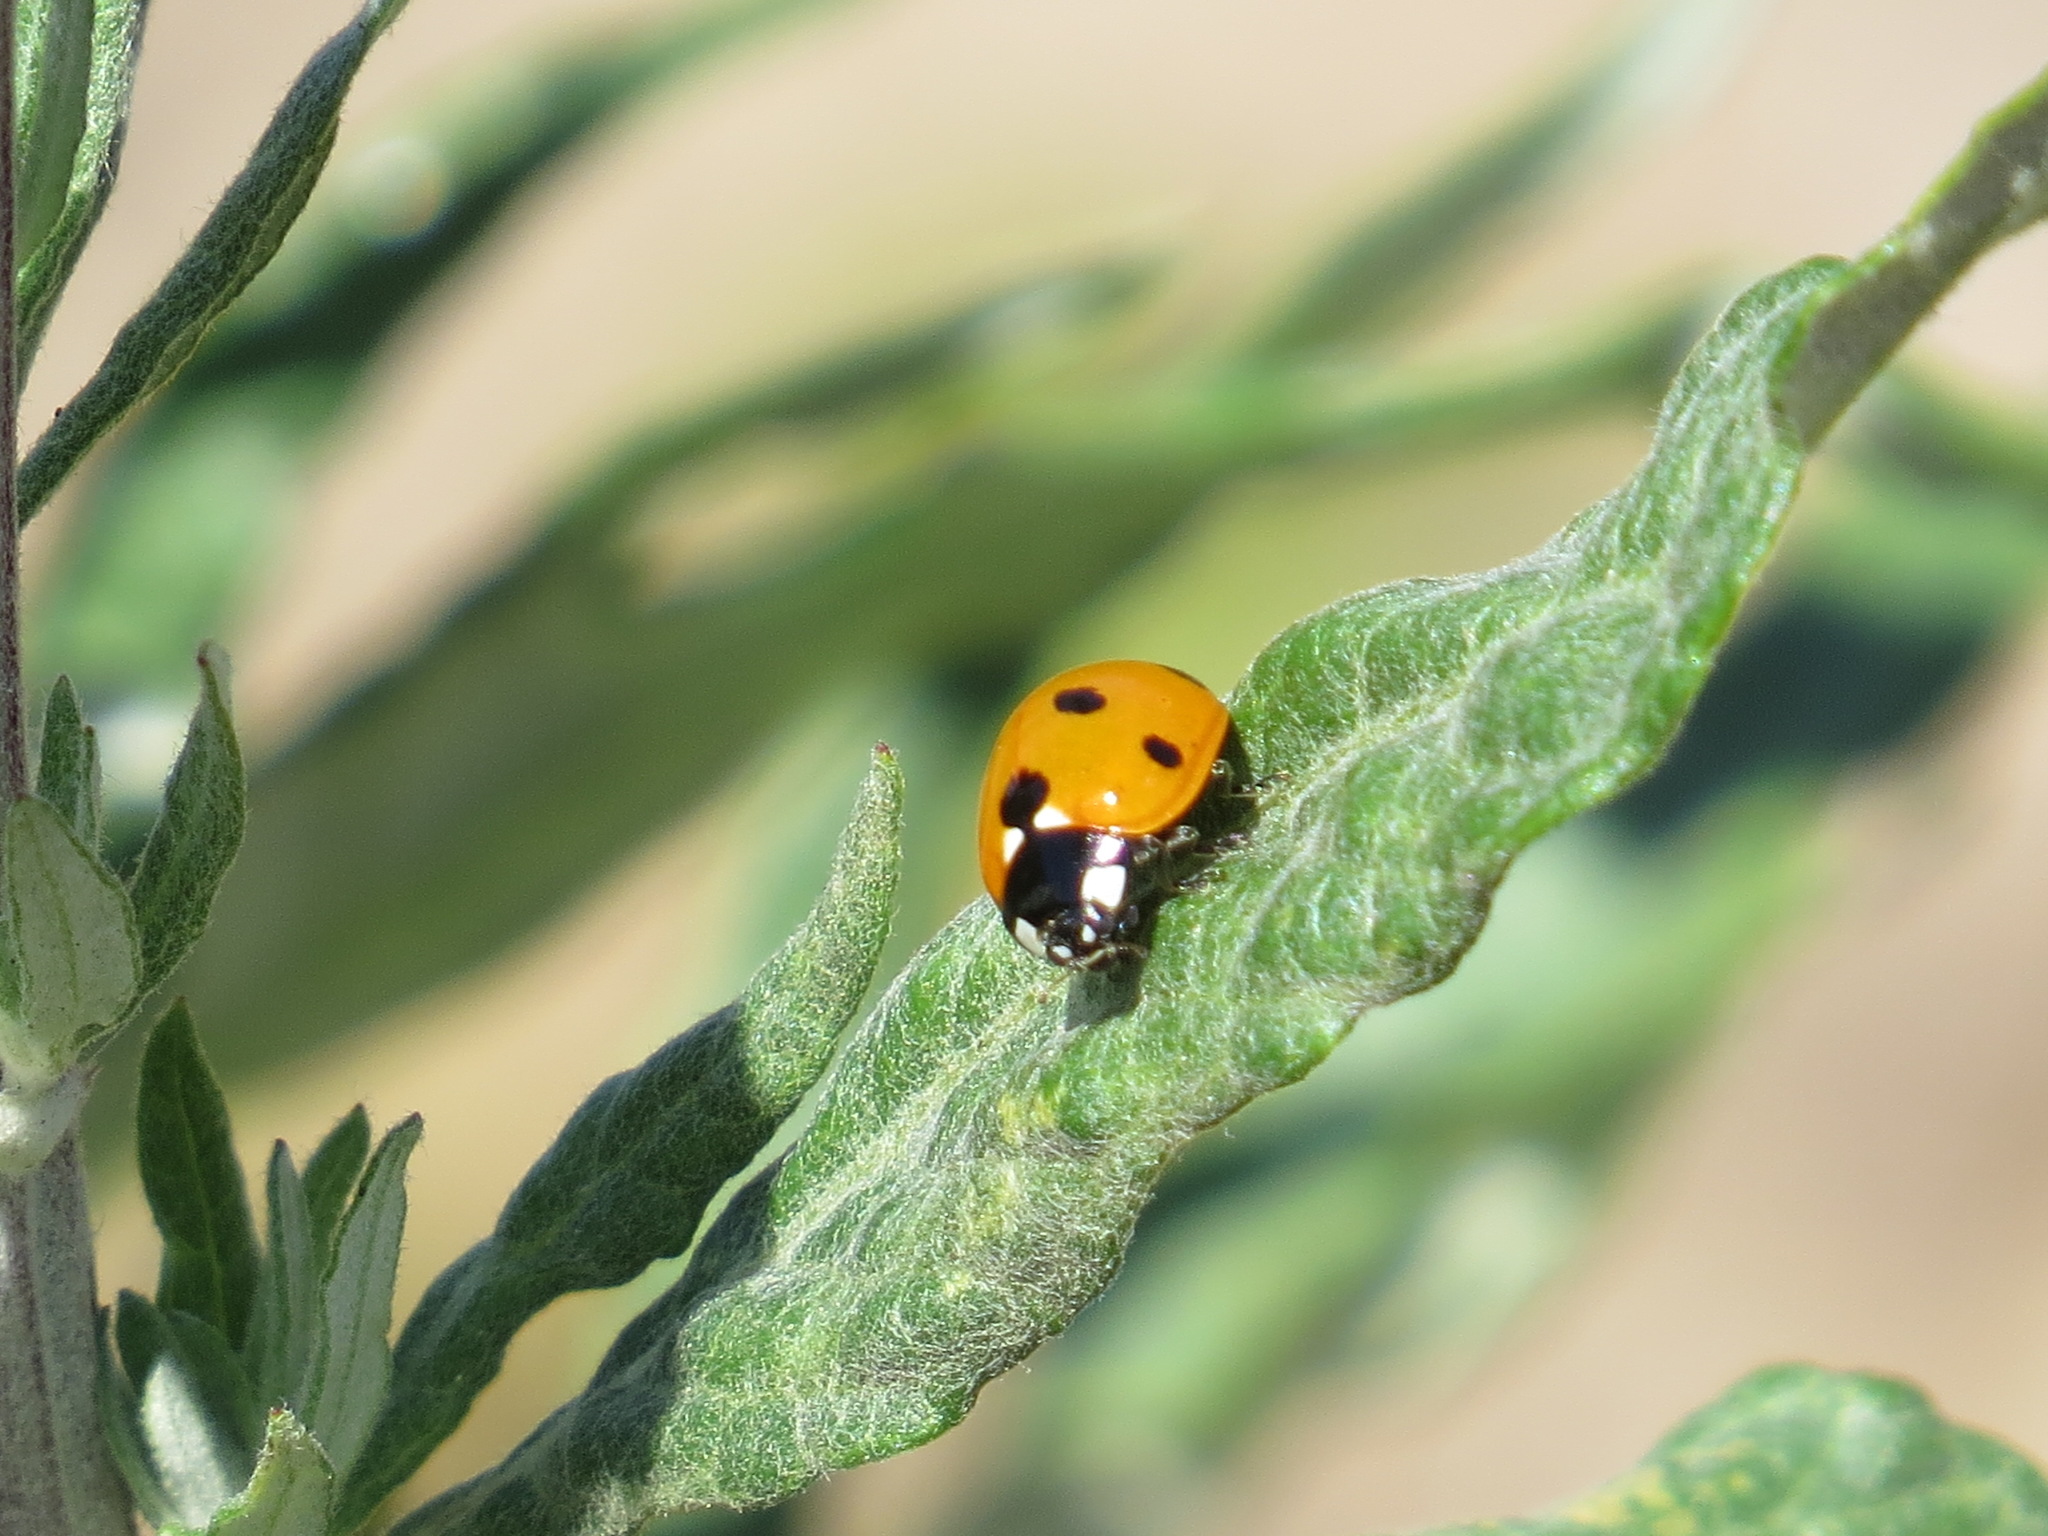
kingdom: Animalia
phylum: Arthropoda
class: Insecta
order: Coleoptera
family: Coccinellidae
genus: Coccinella
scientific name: Coccinella septempunctata
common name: Sevenspotted lady beetle
